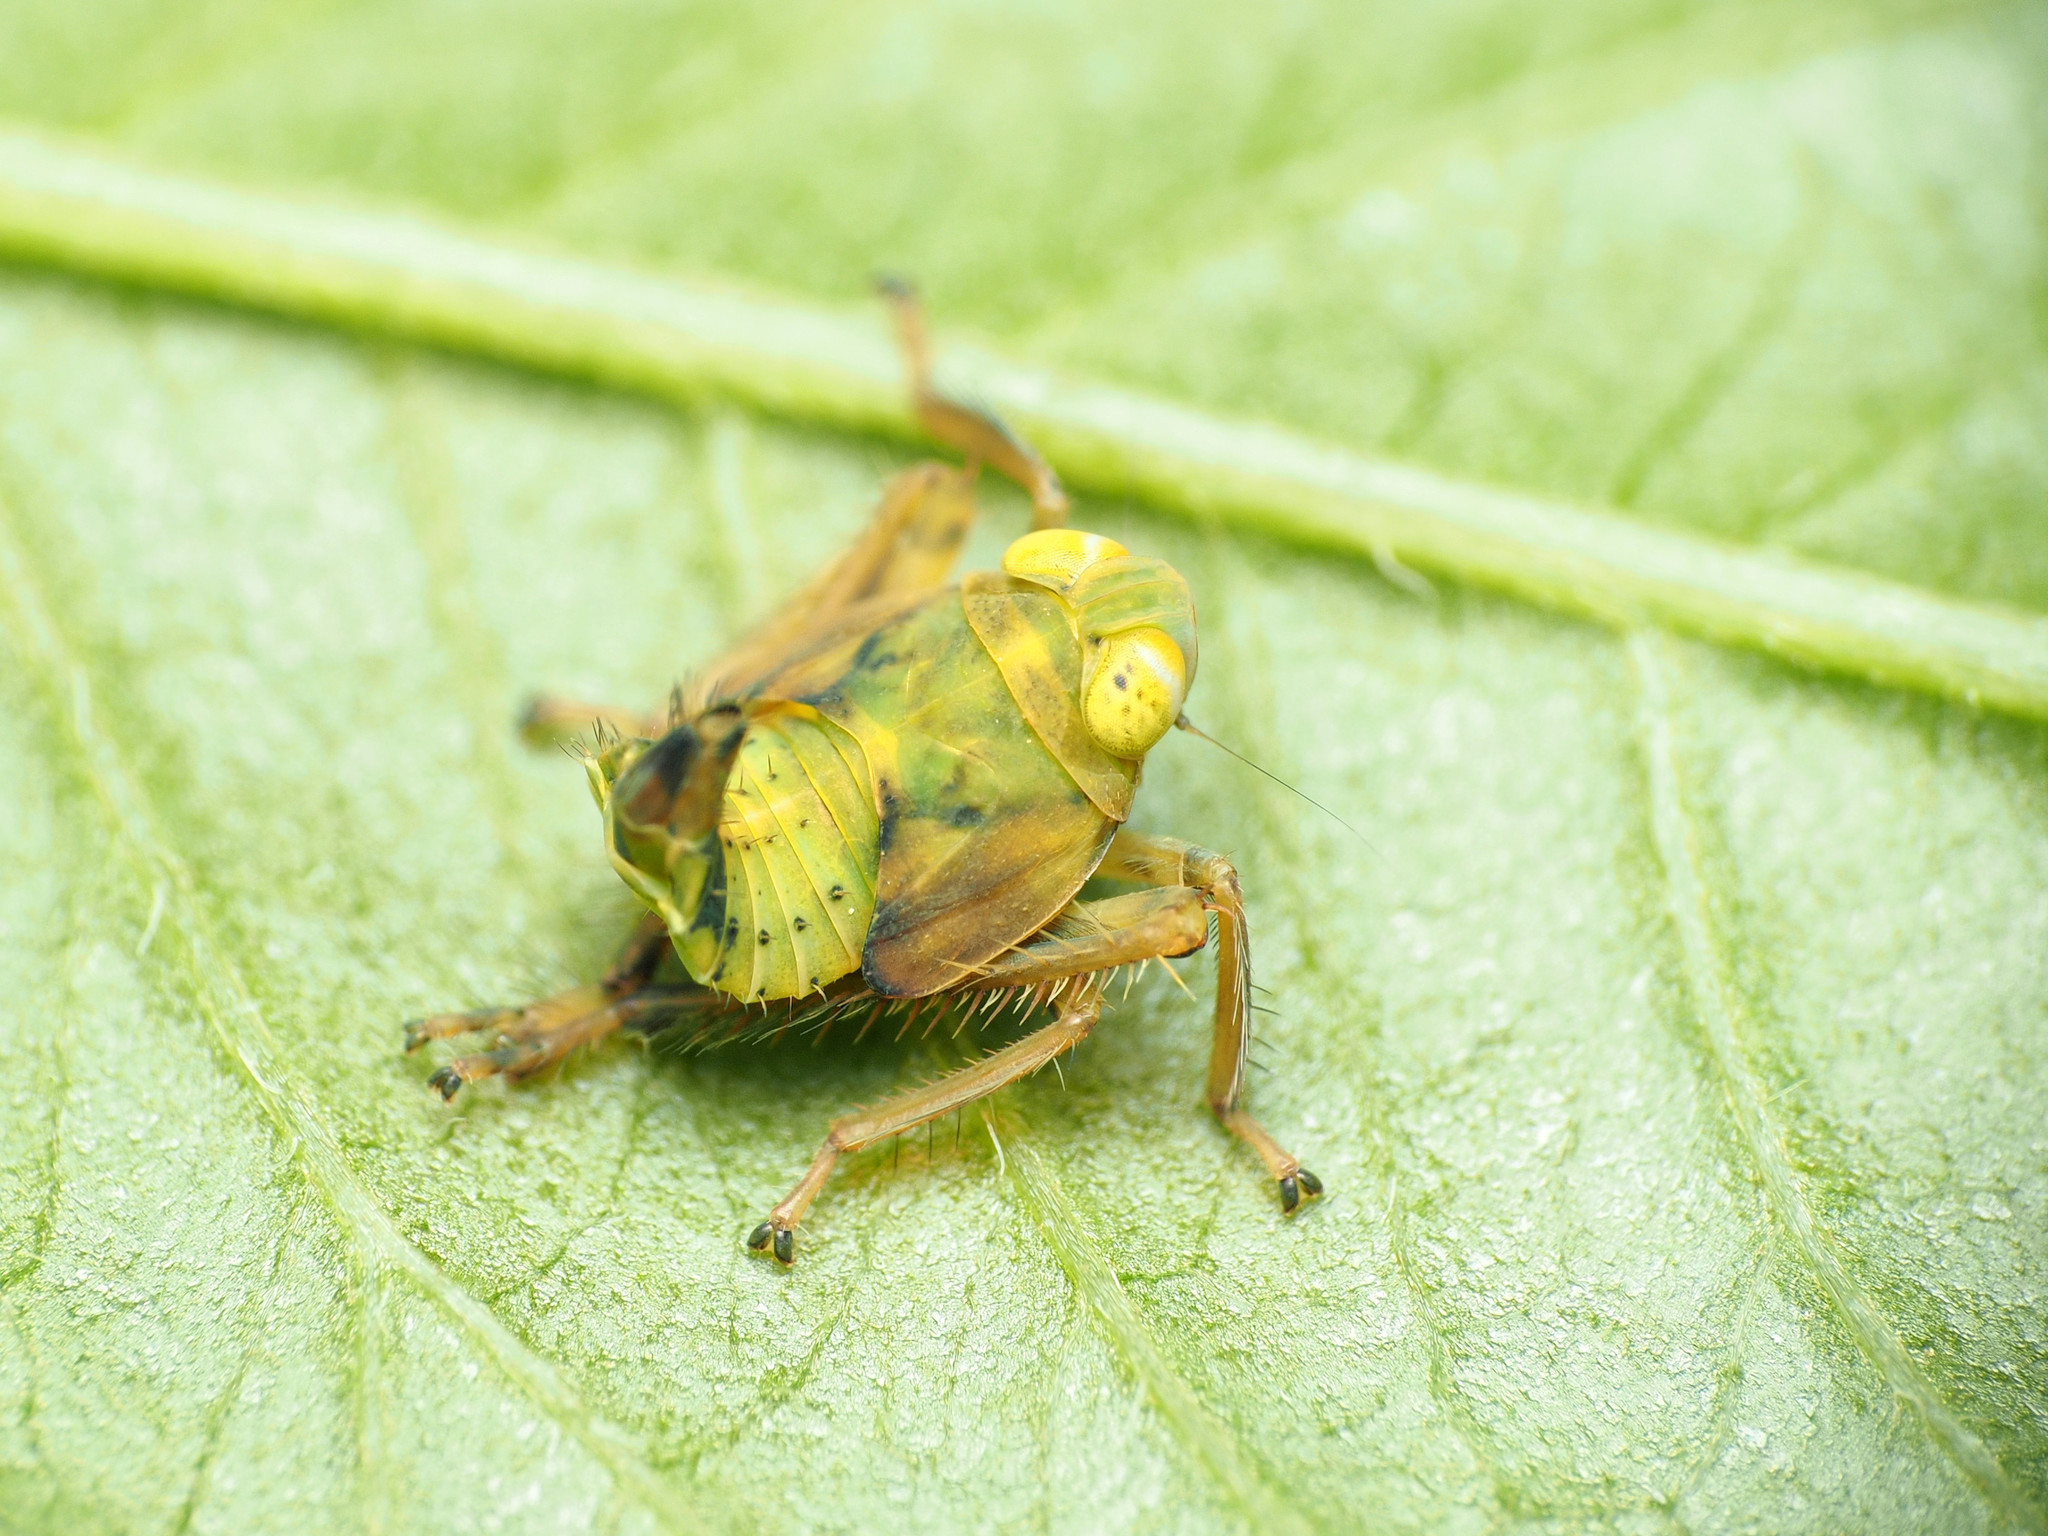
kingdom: Animalia
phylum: Arthropoda
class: Insecta
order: Hemiptera
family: Cicadellidae
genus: Jikradia
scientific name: Jikradia olitoria
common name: Coppery leafhopper
